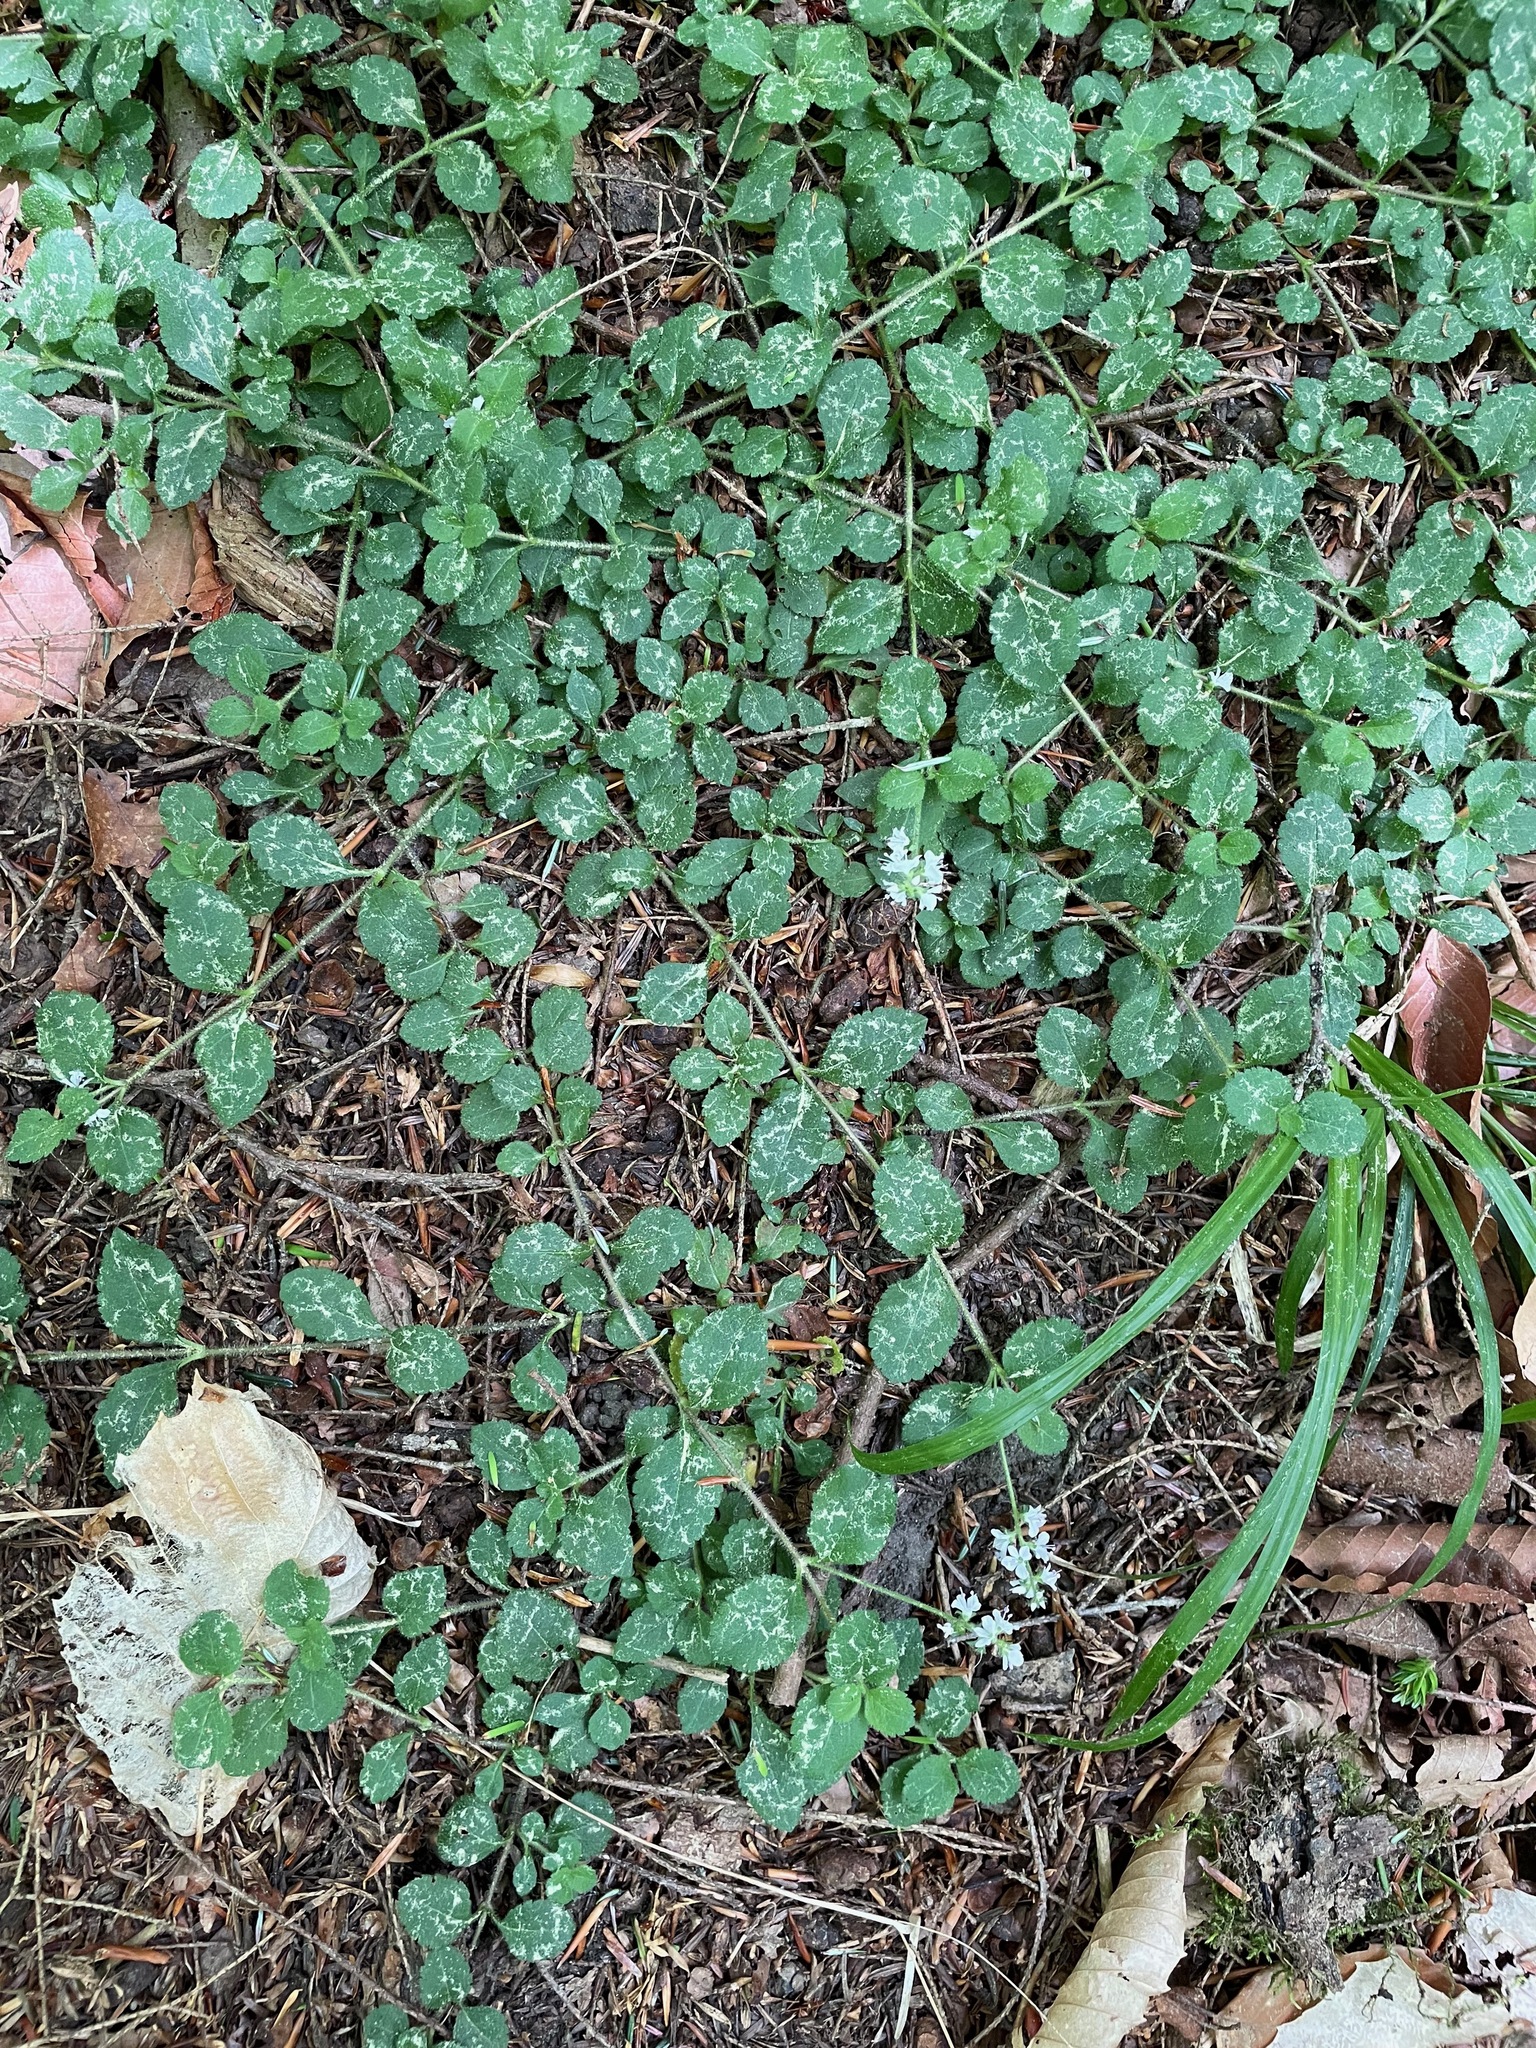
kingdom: Plantae
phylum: Tracheophyta
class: Magnoliopsida
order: Lamiales
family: Plantaginaceae
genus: Veronica
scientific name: Veronica officinalis
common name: Common speedwell
